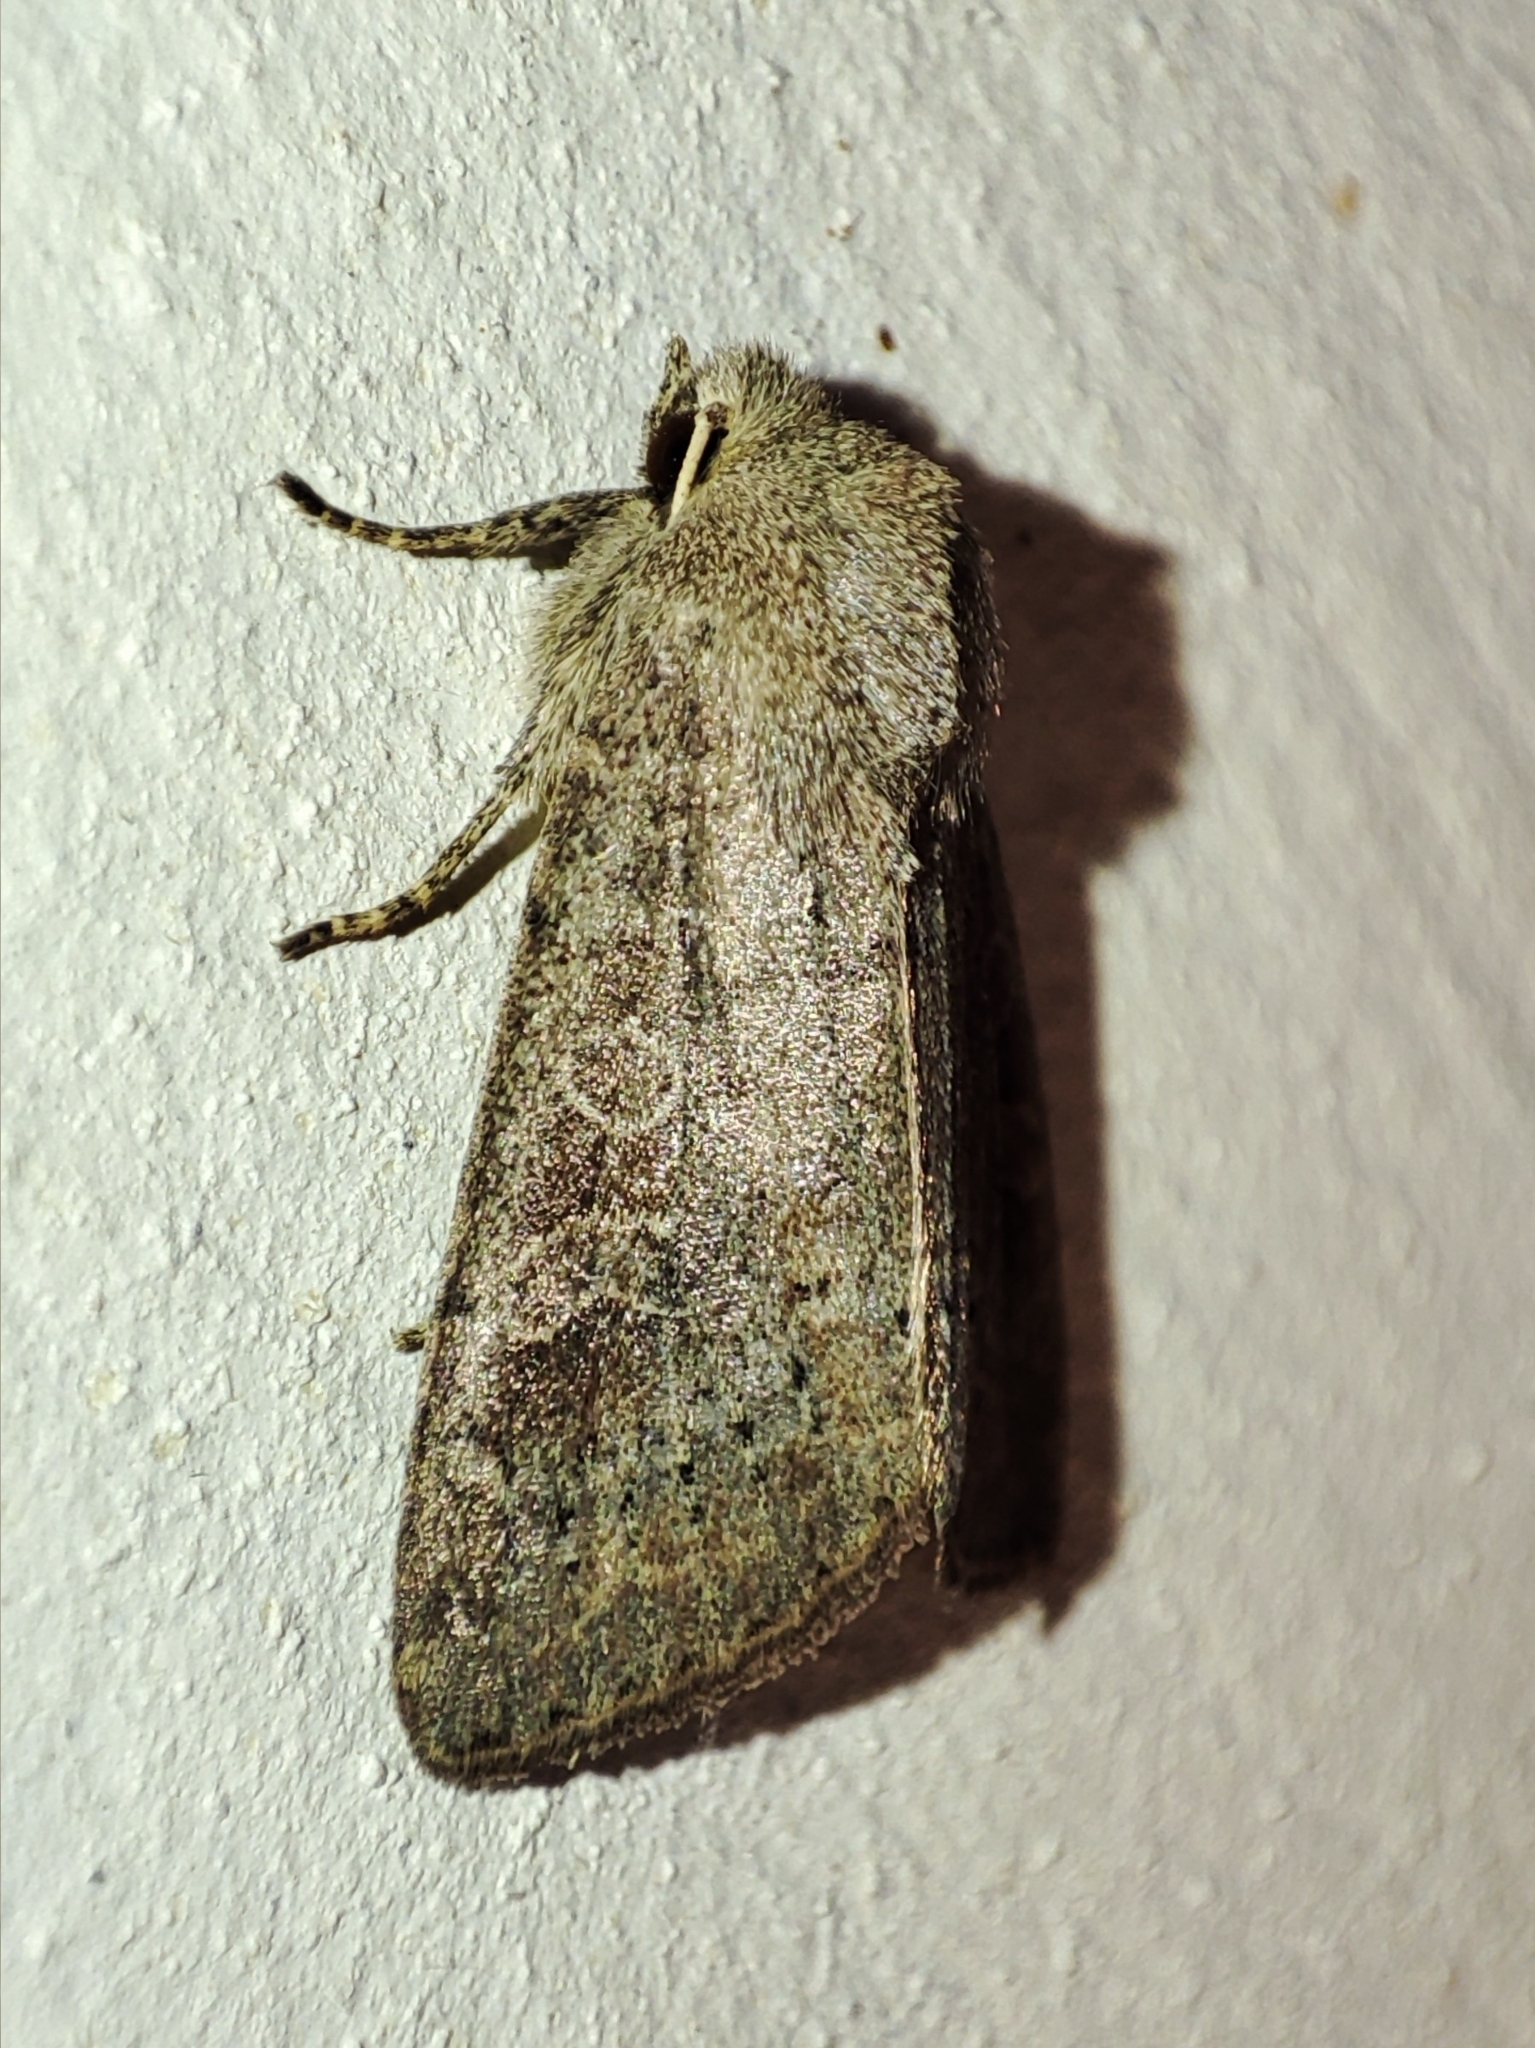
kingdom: Animalia
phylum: Arthropoda
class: Insecta
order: Lepidoptera
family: Noctuidae
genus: Parastichtis
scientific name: Parastichtis suspecta
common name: Suspected
